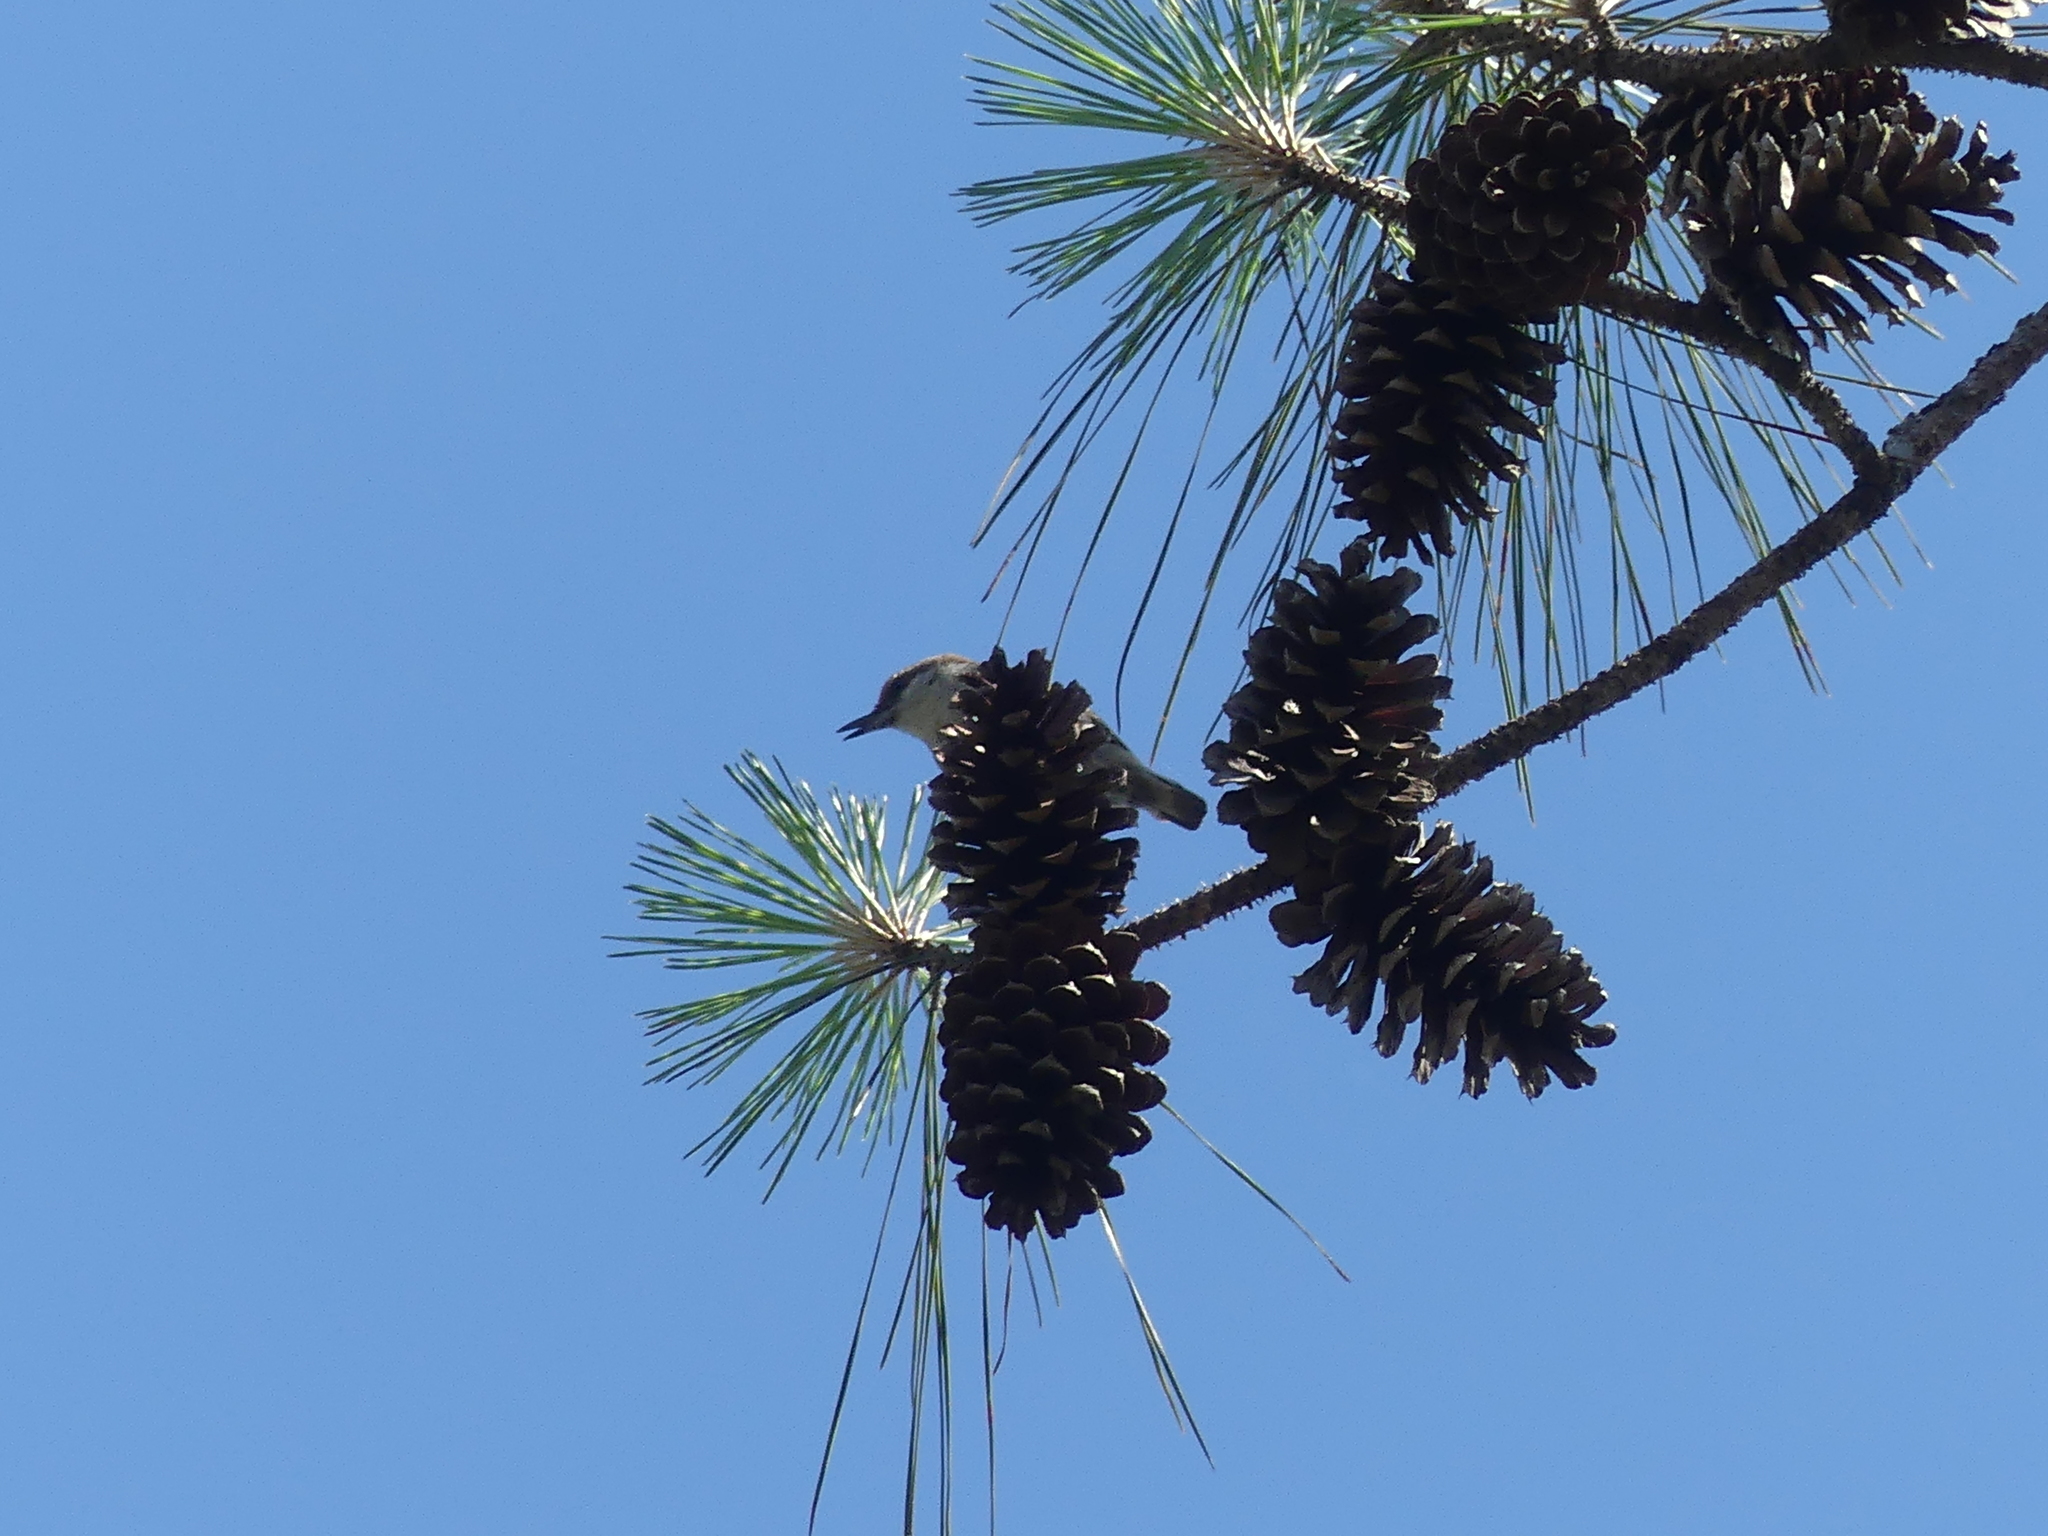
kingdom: Animalia
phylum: Chordata
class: Aves
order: Passeriformes
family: Sittidae
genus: Sitta
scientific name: Sitta pusilla
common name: Brown-headed nuthatch
